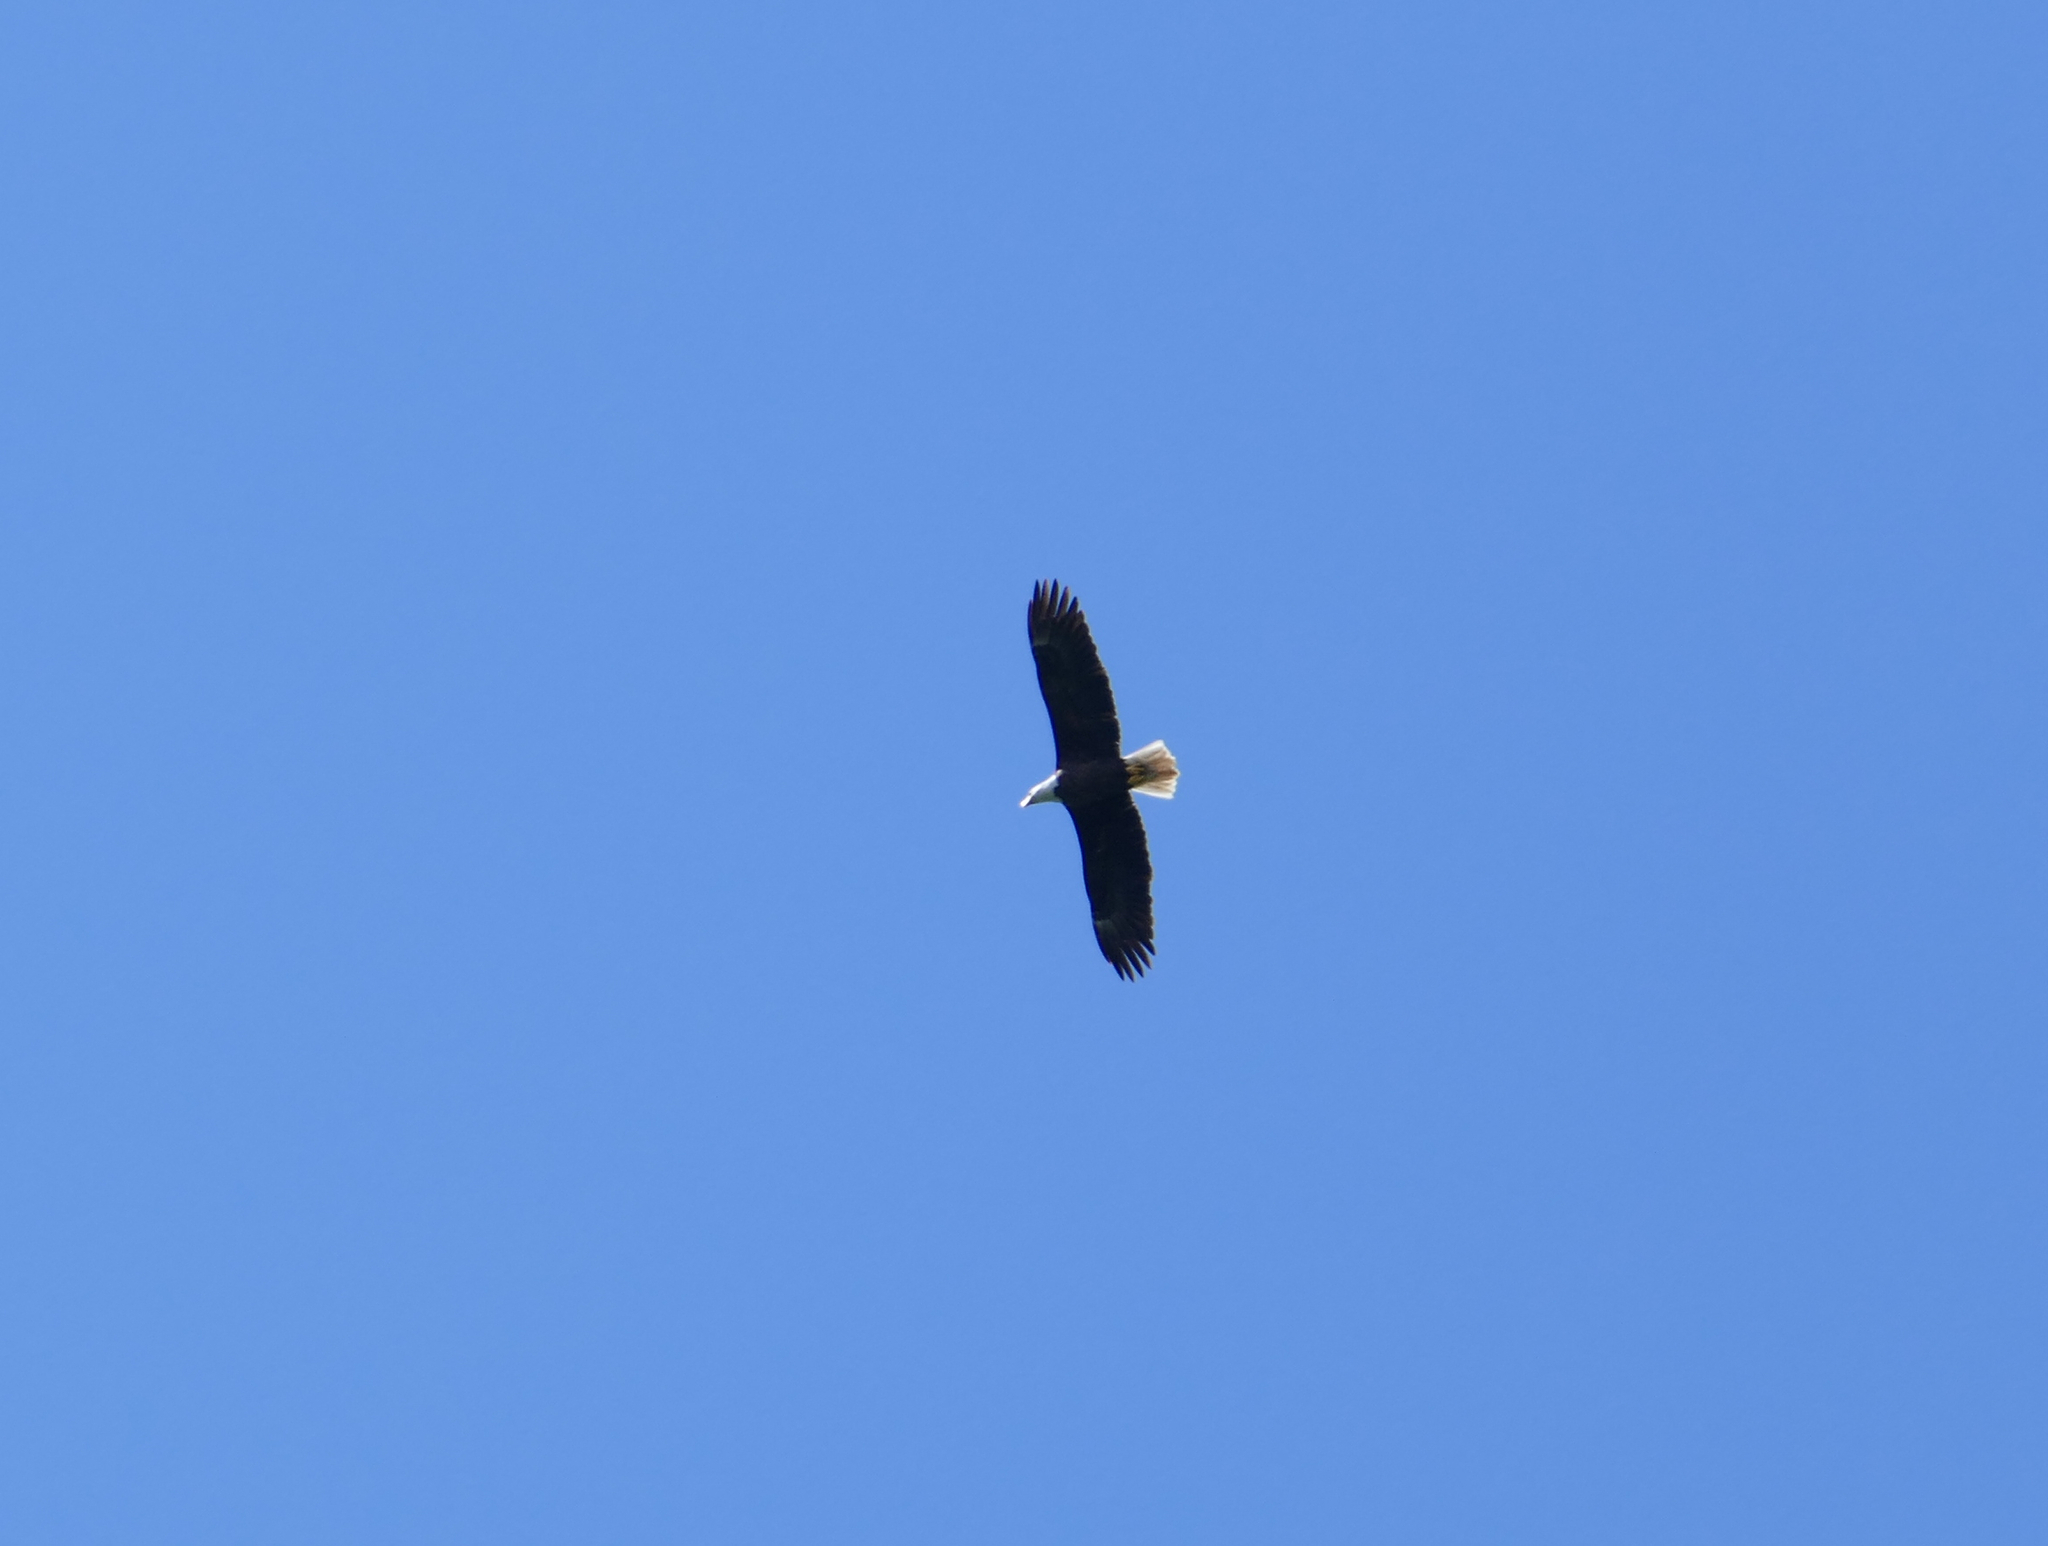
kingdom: Animalia
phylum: Chordata
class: Aves
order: Accipitriformes
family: Accipitridae
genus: Haliaeetus
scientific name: Haliaeetus leucocephalus
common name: Bald eagle
